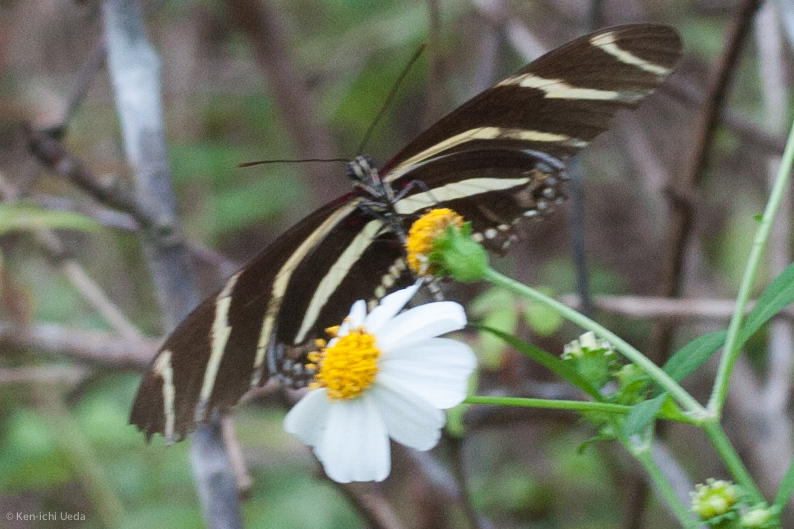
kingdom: Animalia
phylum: Arthropoda
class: Insecta
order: Lepidoptera
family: Nymphalidae
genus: Heliconius
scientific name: Heliconius charithonia
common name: Zebra long wing
